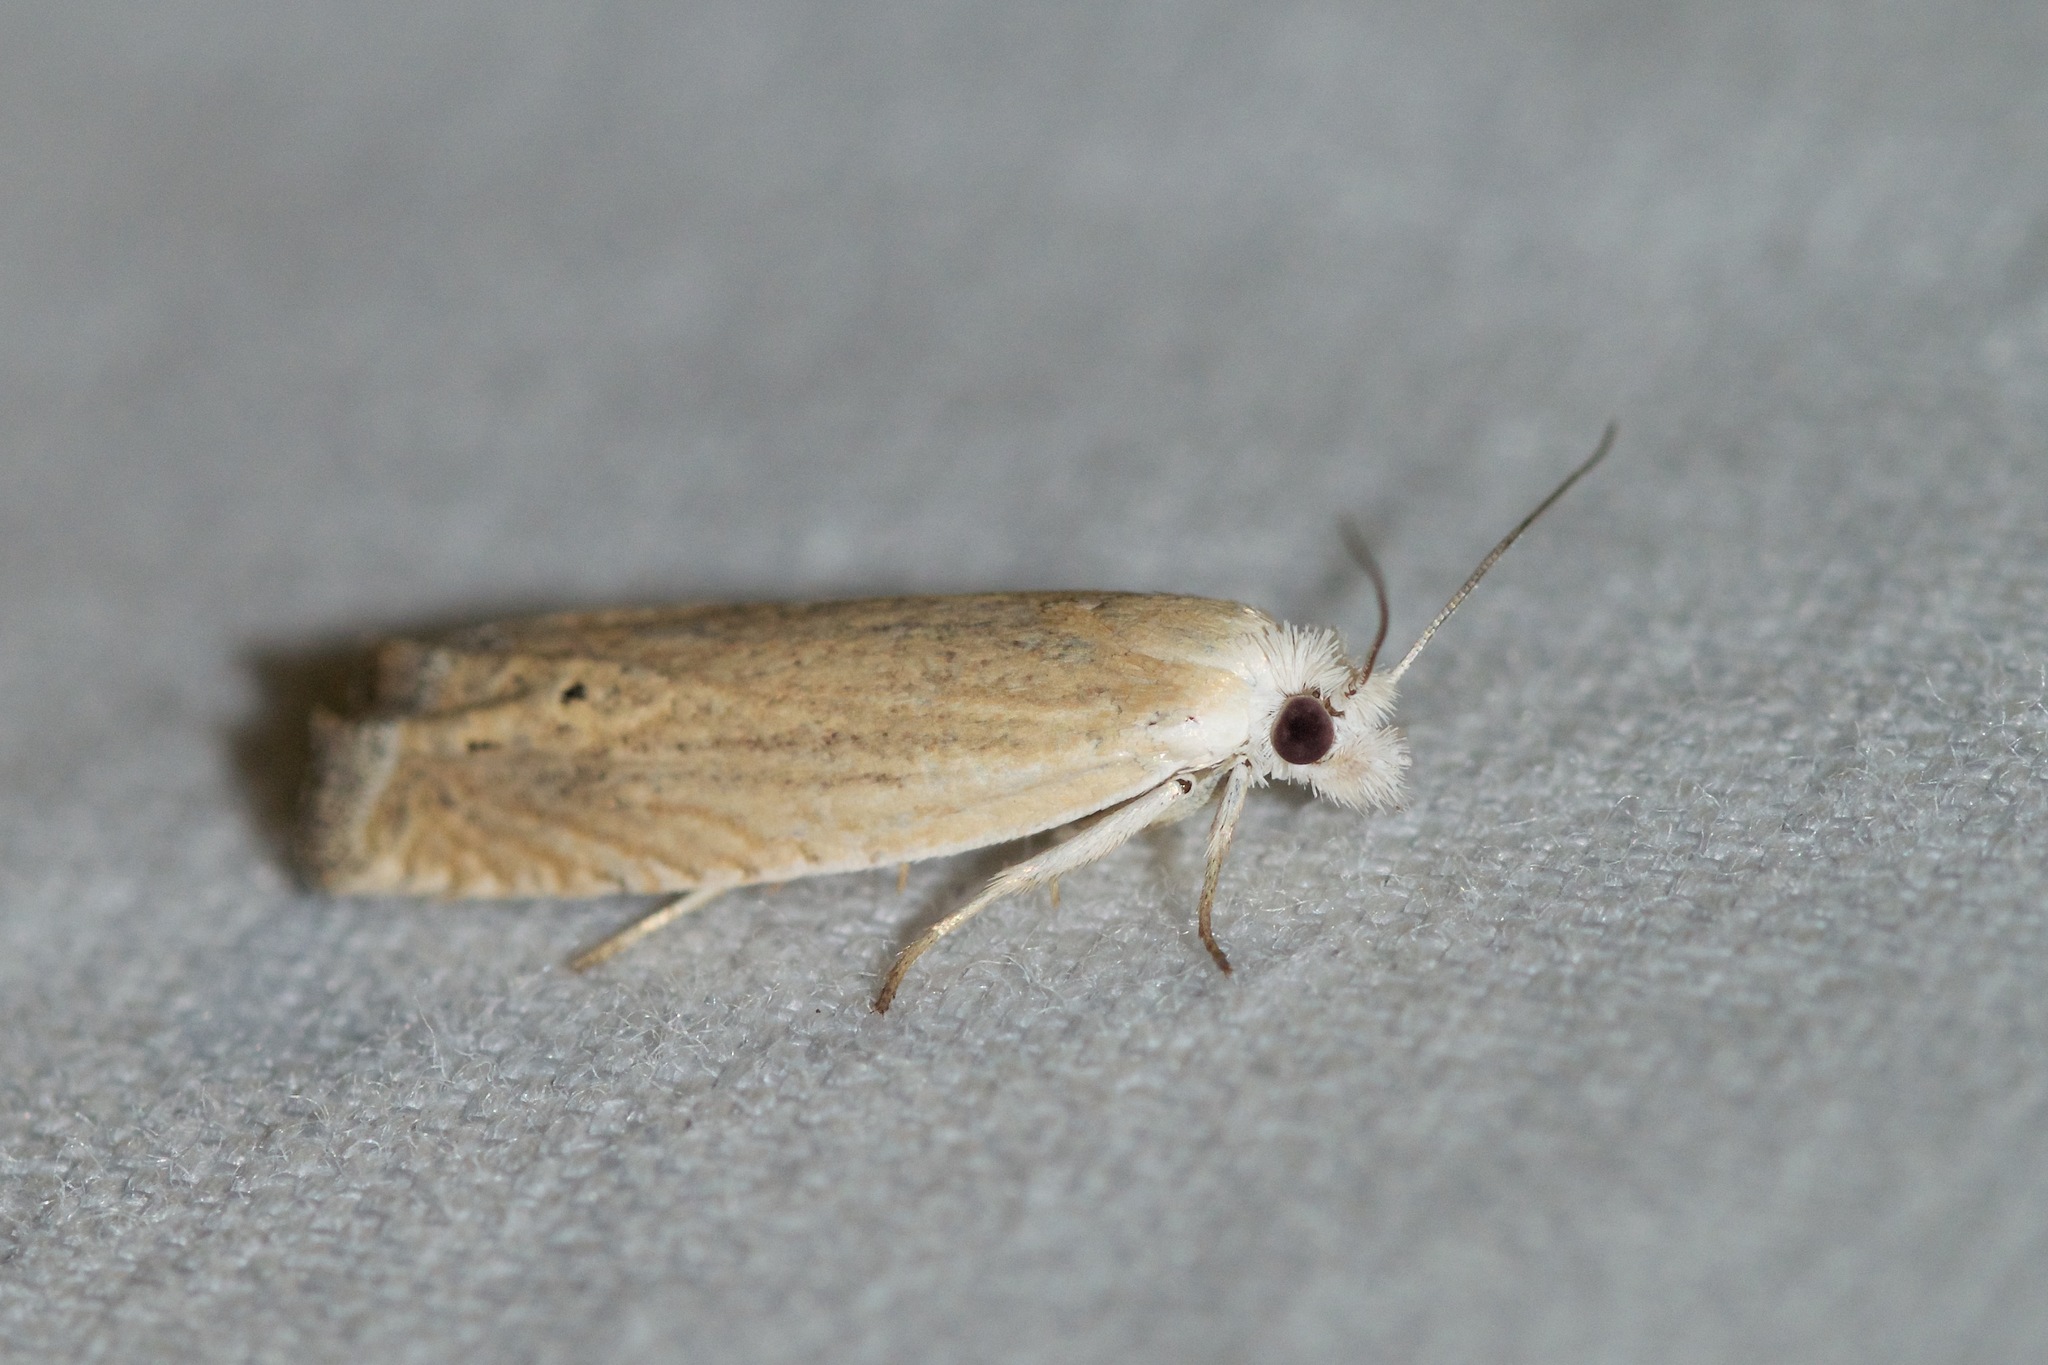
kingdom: Animalia
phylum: Arthropoda
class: Insecta
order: Lepidoptera
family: Tortricidae
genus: Pelochrista
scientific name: Pelochrista argentialbana
